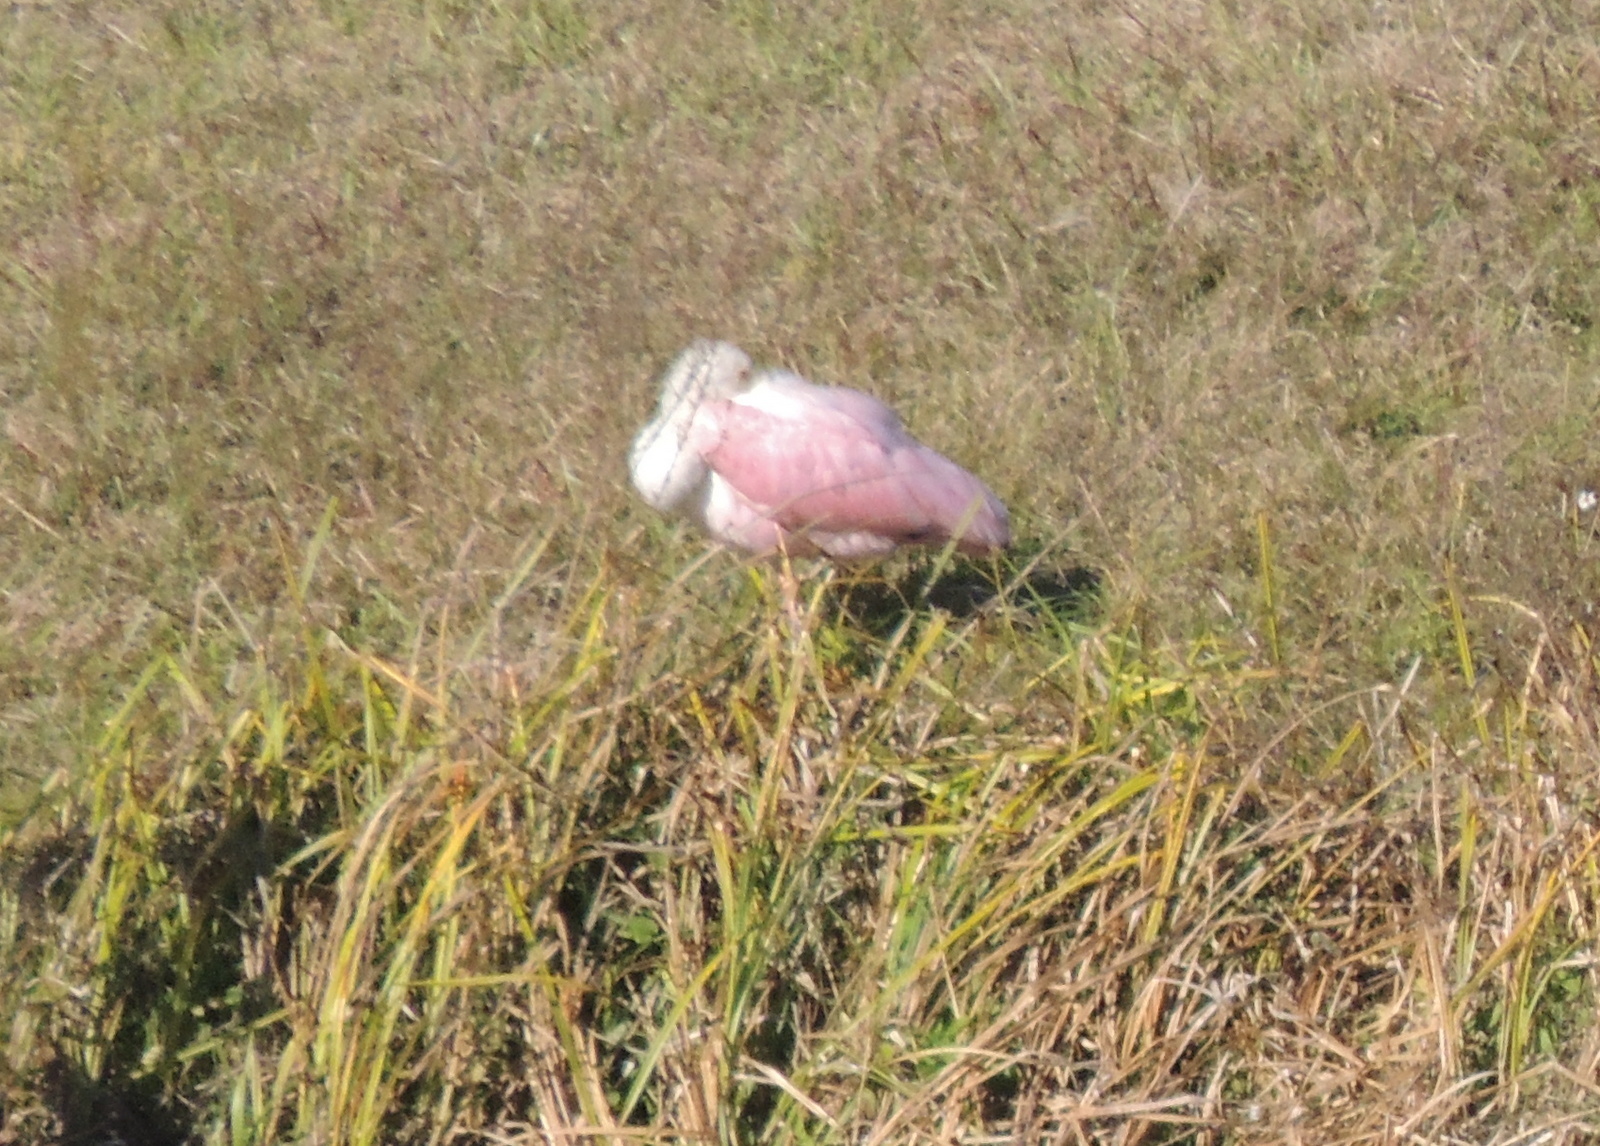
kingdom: Animalia
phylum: Chordata
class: Aves
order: Pelecaniformes
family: Threskiornithidae
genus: Platalea
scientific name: Platalea ajaja
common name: Roseate spoonbill
